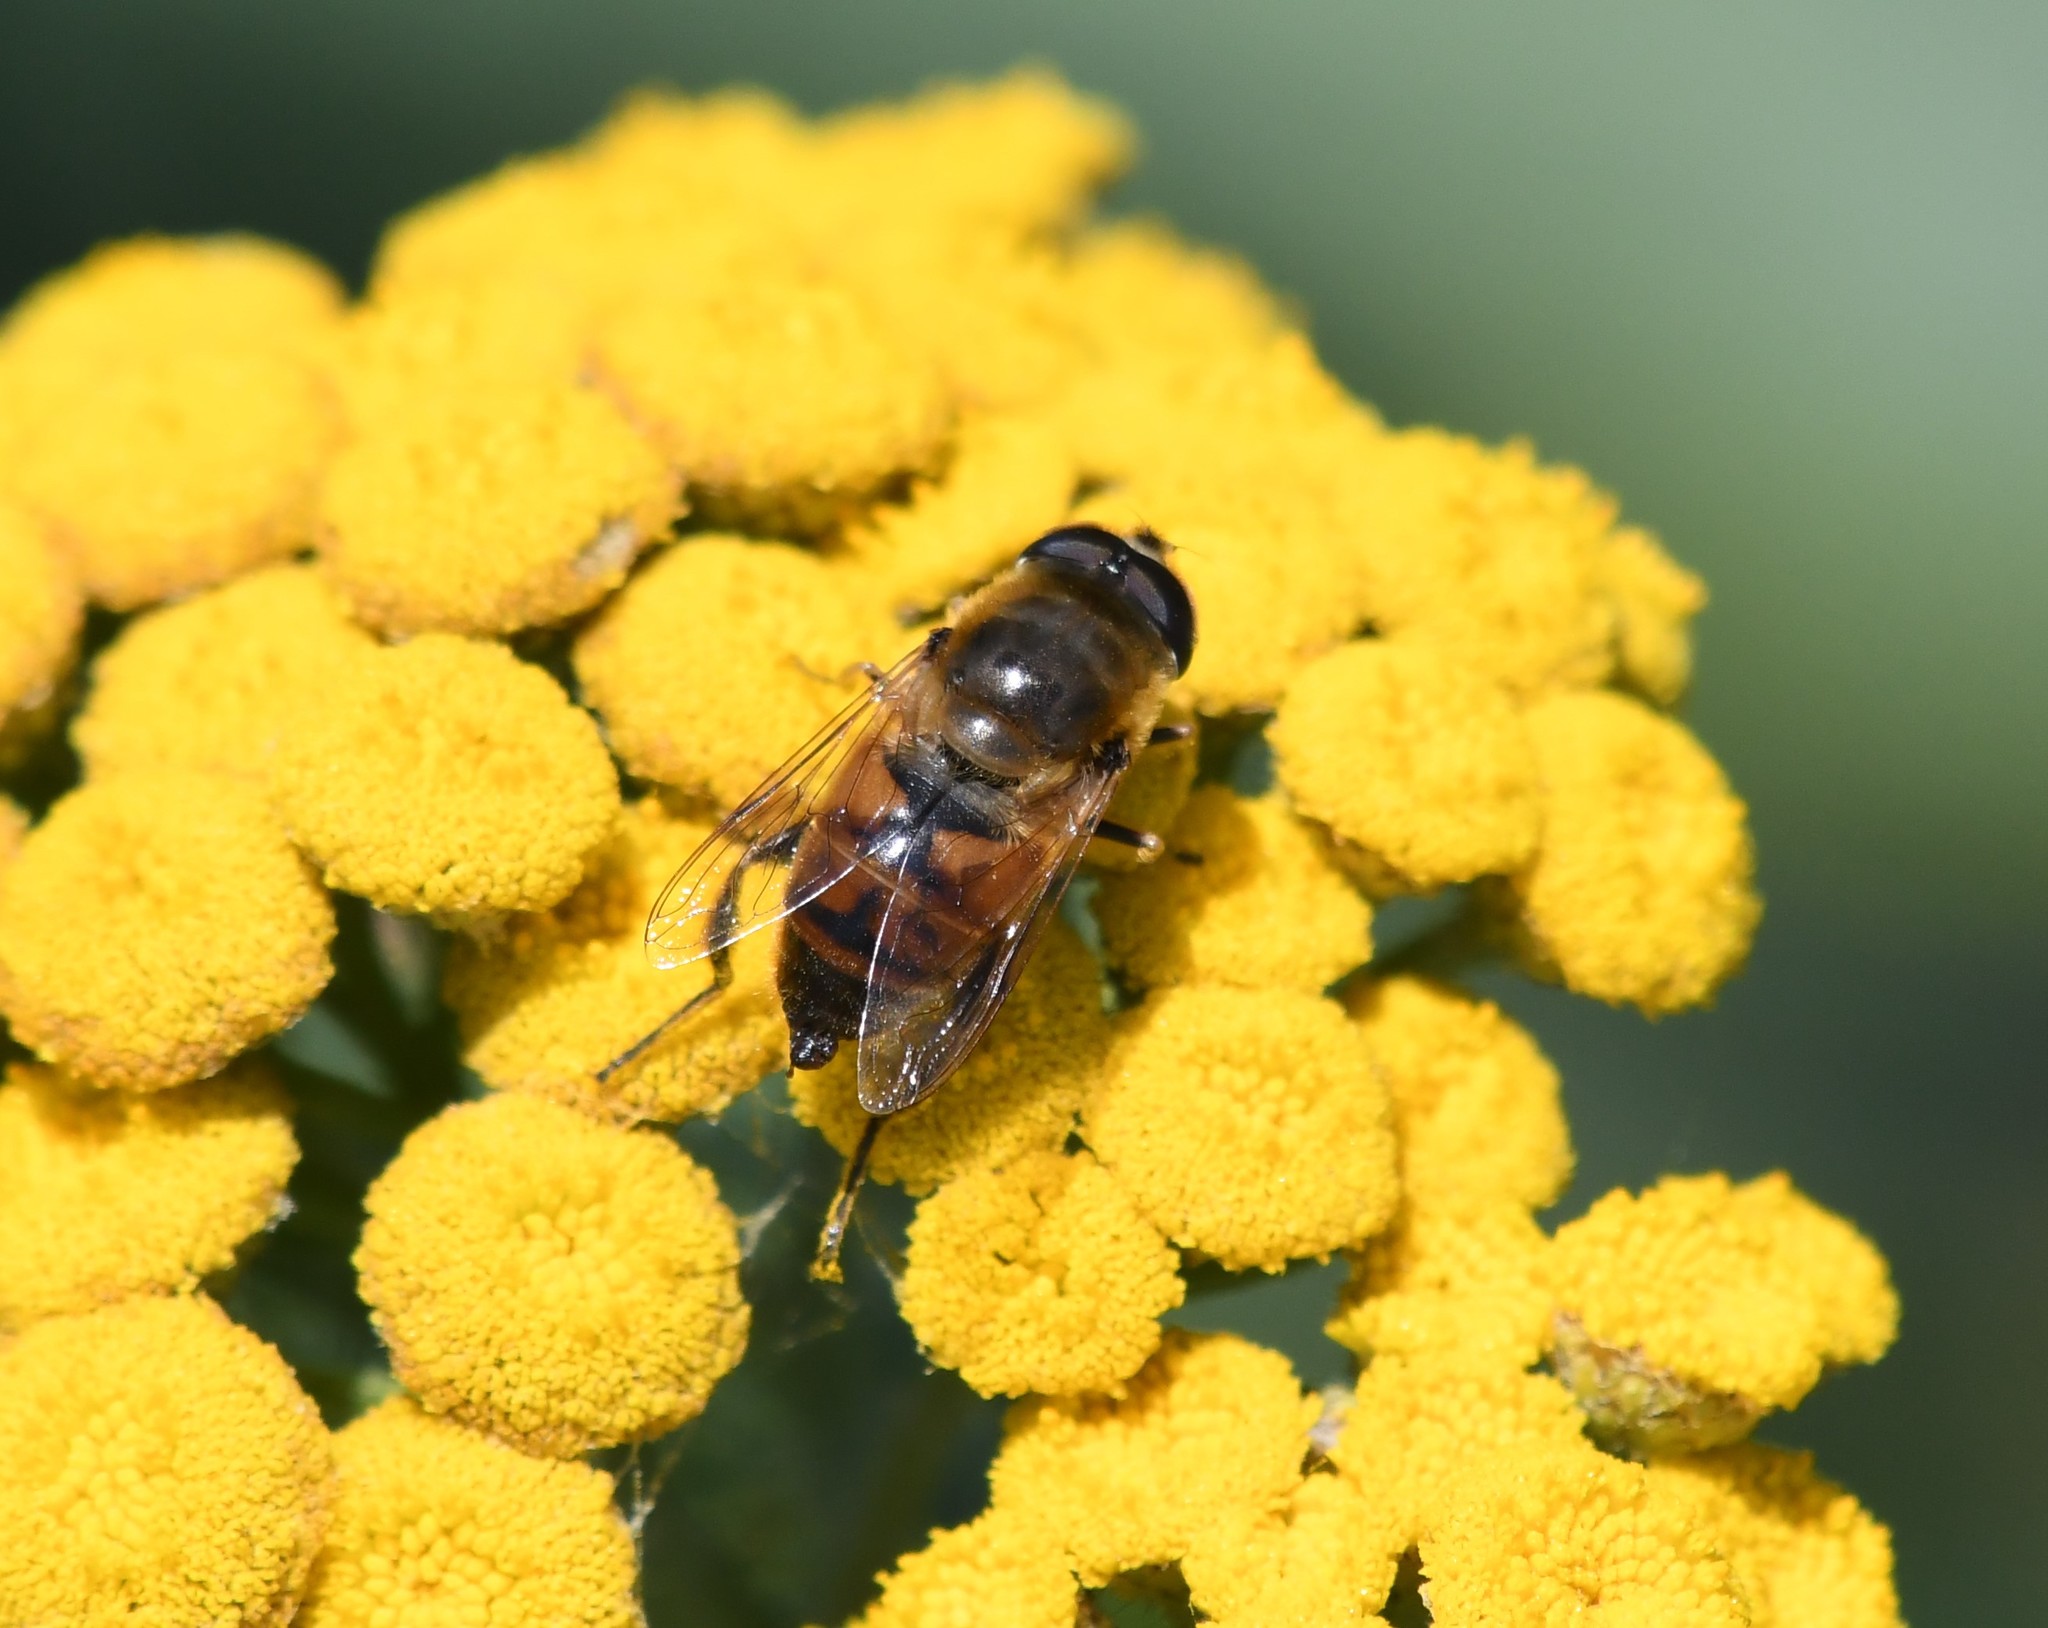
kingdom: Animalia
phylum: Arthropoda
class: Insecta
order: Diptera
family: Syrphidae
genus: Eristalis
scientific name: Eristalis tenax
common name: Drone fly
